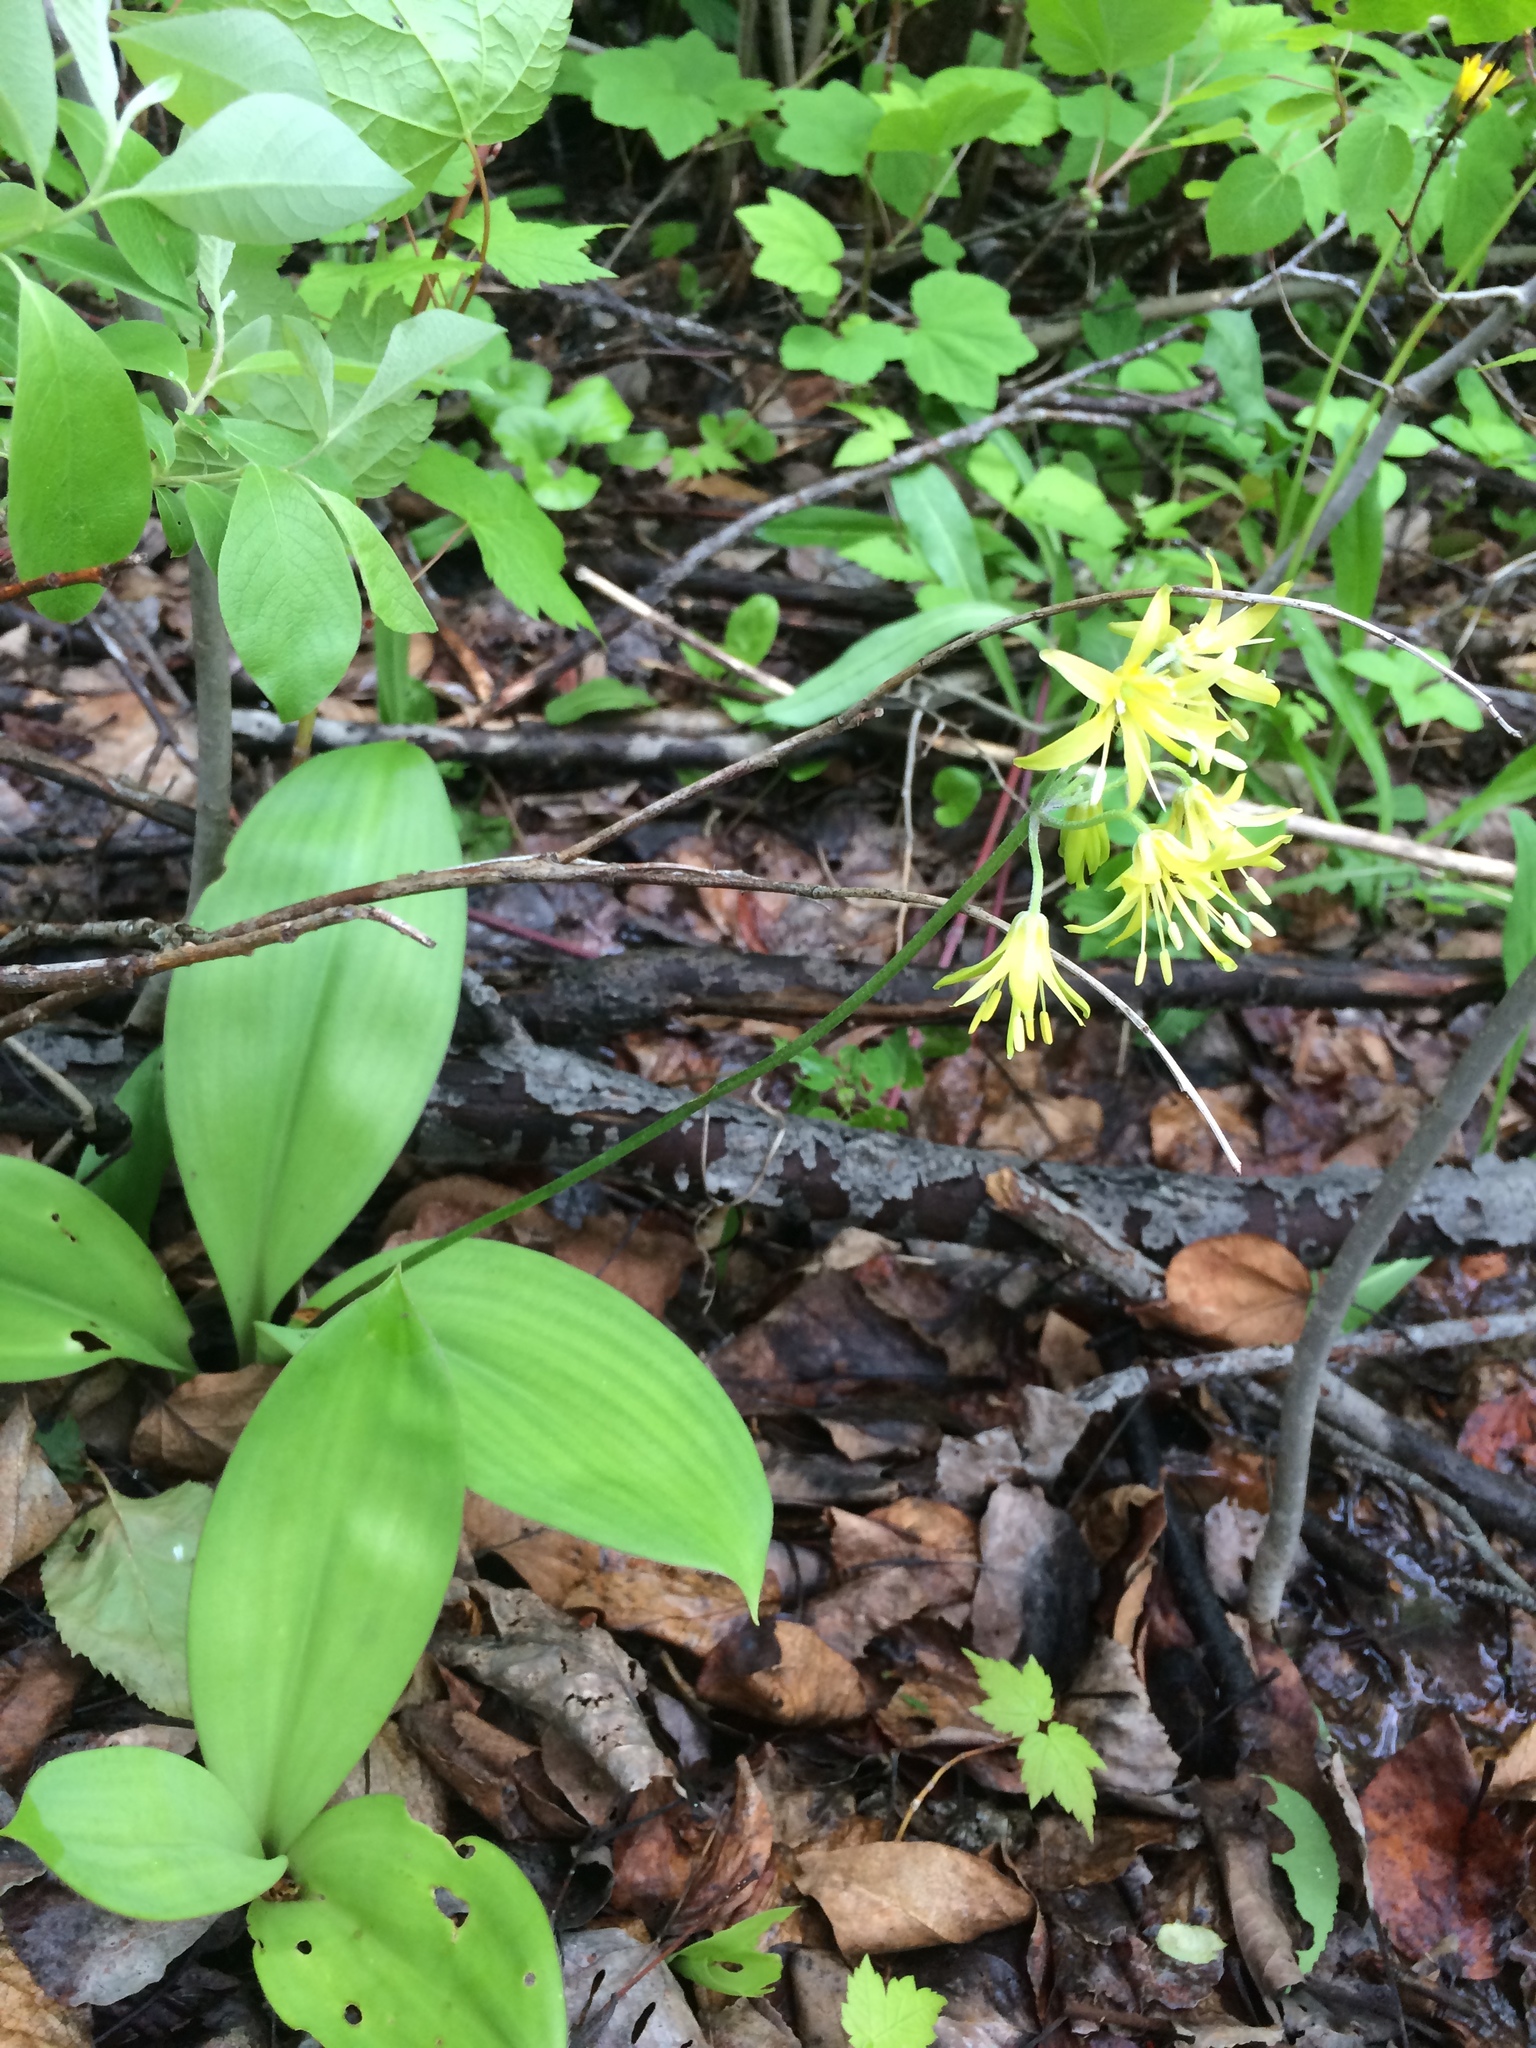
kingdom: Plantae
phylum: Tracheophyta
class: Liliopsida
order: Liliales
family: Liliaceae
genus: Clintonia
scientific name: Clintonia borealis
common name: Yellow clintonia
